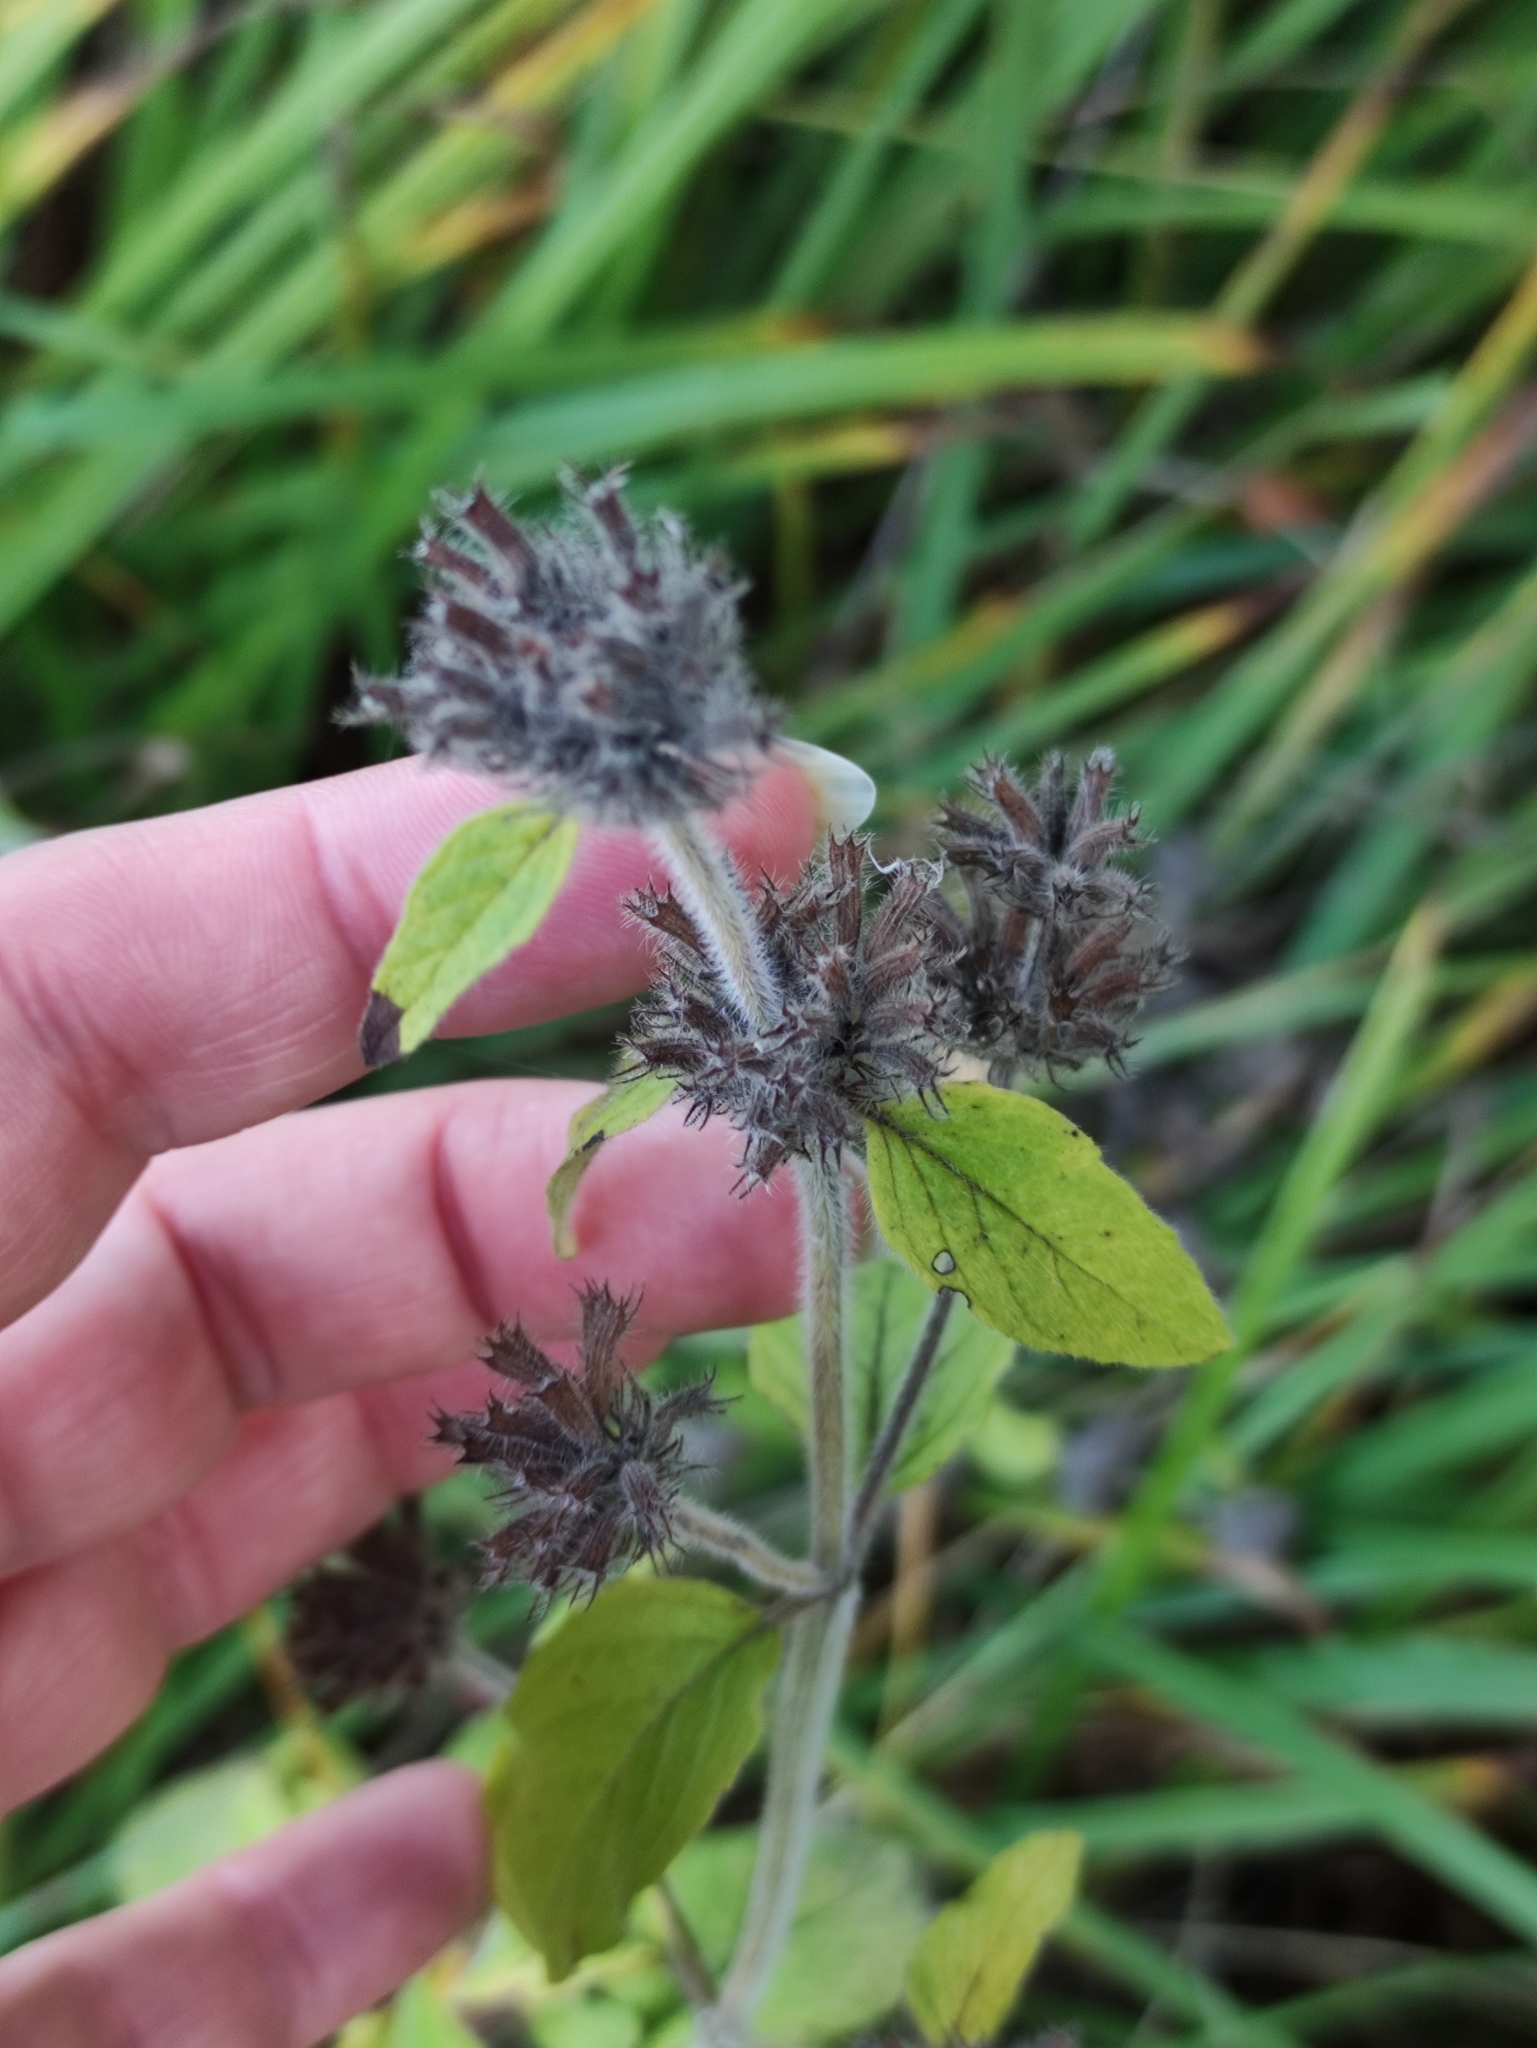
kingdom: Plantae
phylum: Tracheophyta
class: Magnoliopsida
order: Lamiales
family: Lamiaceae
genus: Clinopodium
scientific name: Clinopodium vulgare
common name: Wild basil
